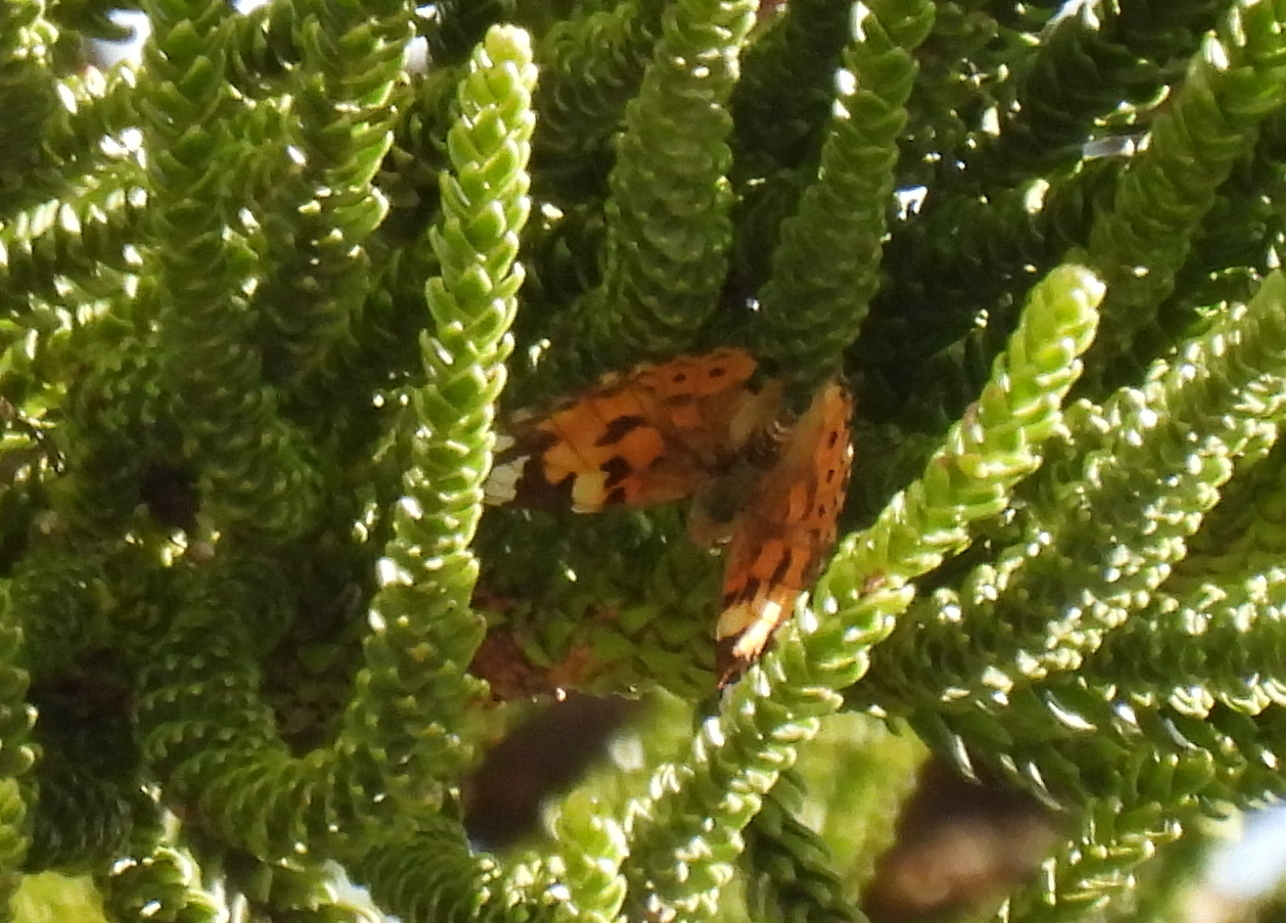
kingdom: Animalia
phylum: Arthropoda
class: Insecta
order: Lepidoptera
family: Nymphalidae
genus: Vanessa
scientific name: Vanessa cardui
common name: Painted lady
